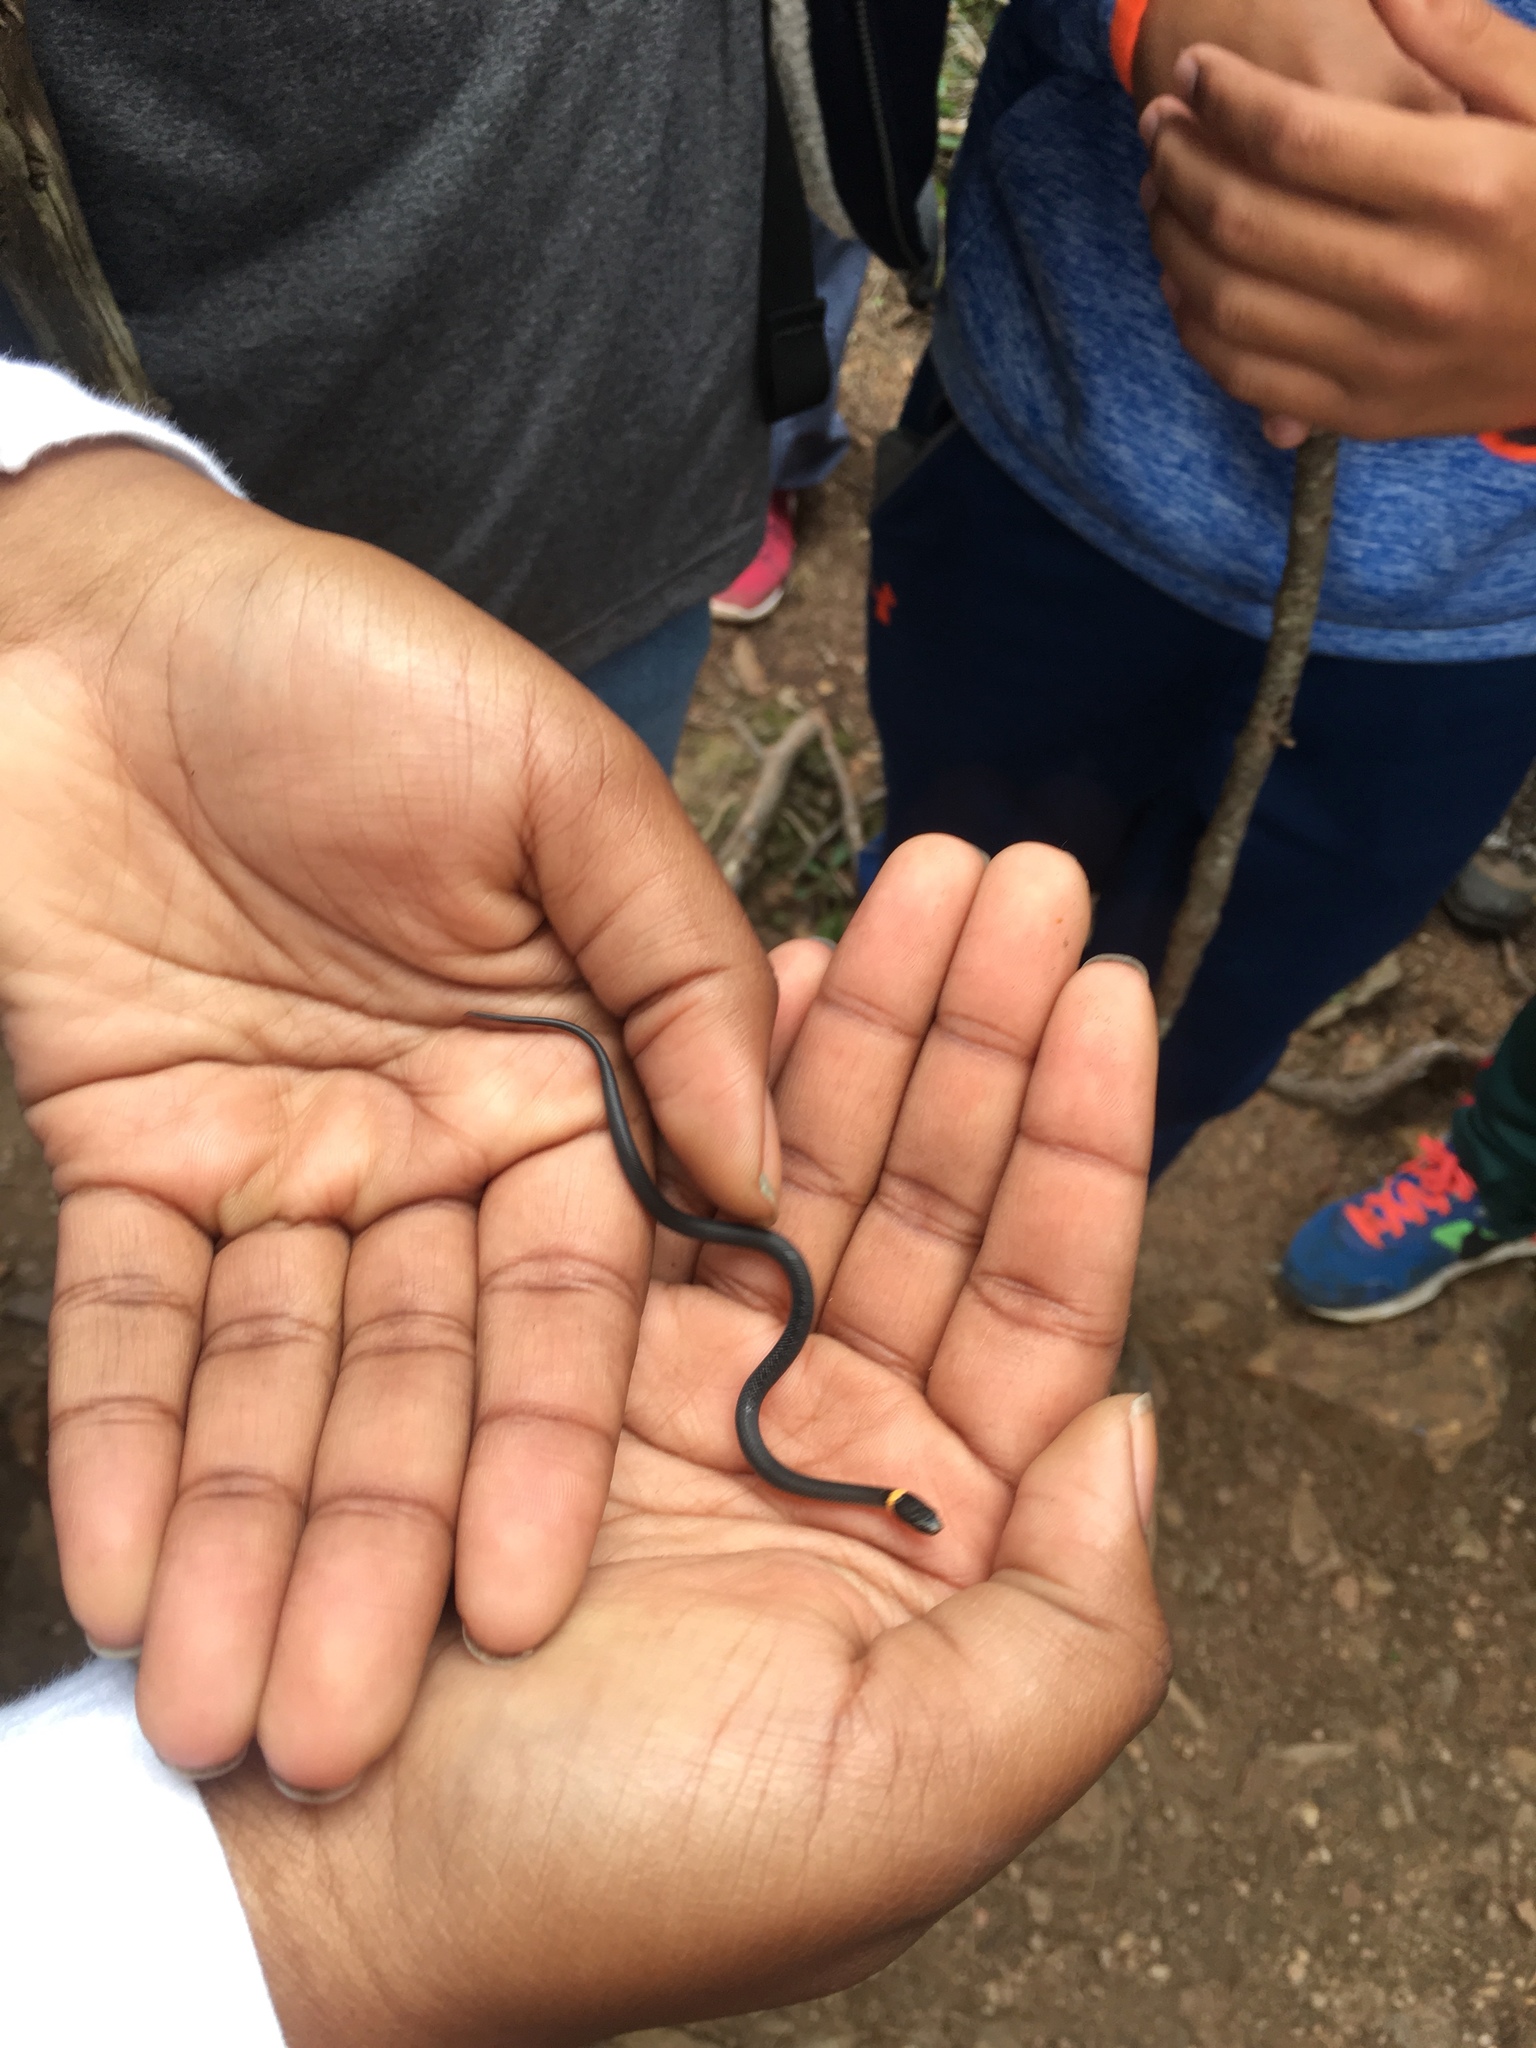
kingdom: Animalia
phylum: Chordata
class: Squamata
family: Colubridae
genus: Diadophis
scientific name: Diadophis punctatus
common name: Ringneck snake
